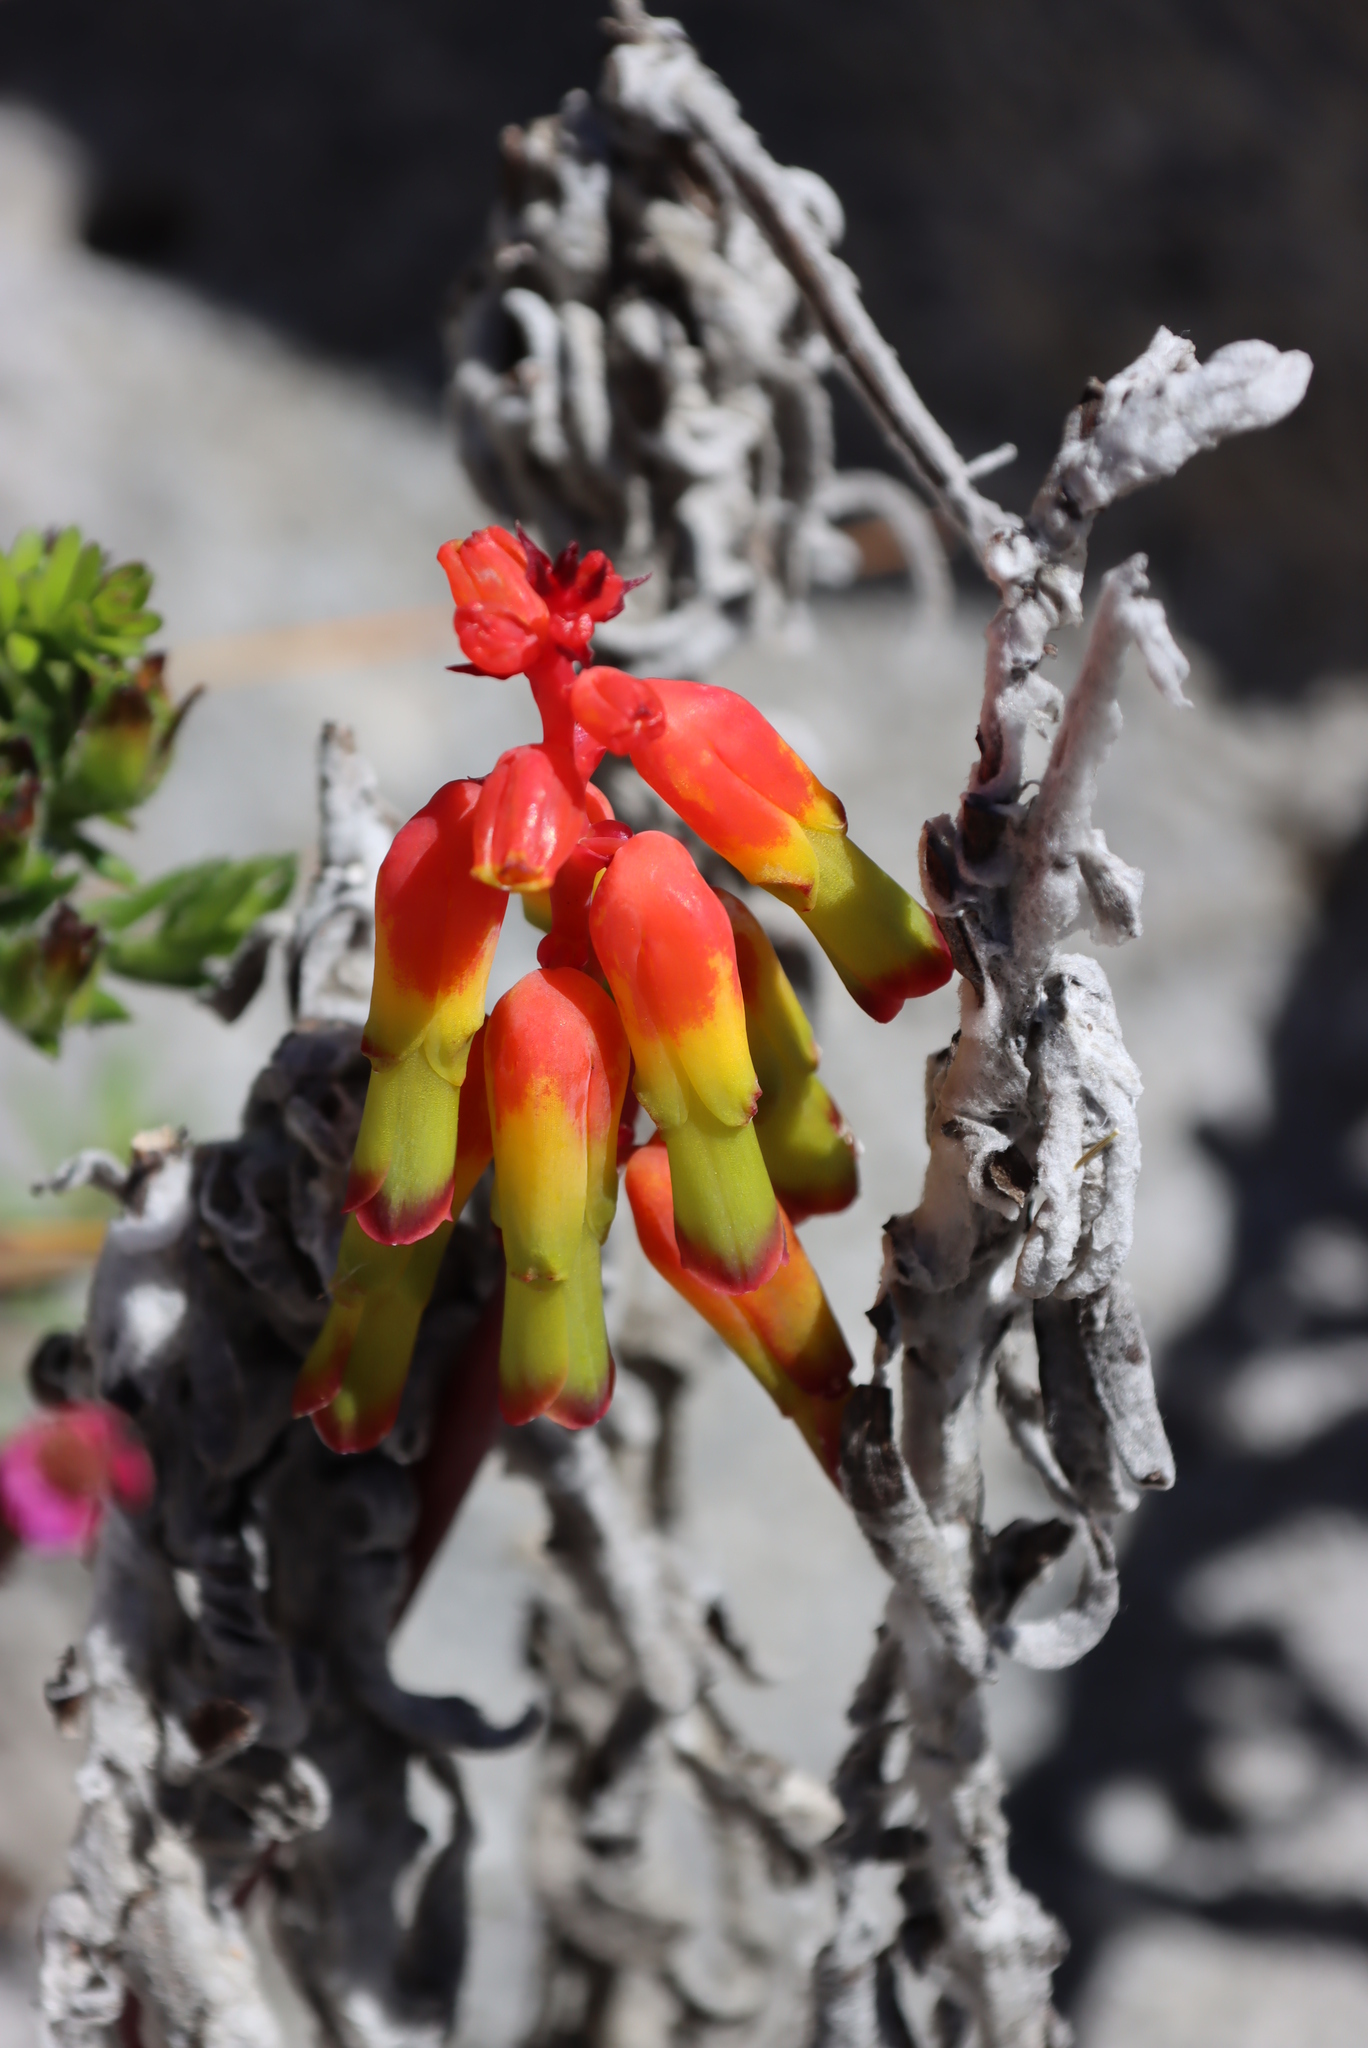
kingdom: Plantae
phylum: Tracheophyta
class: Liliopsida
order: Asparagales
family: Asparagaceae
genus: Lachenalia
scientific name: Lachenalia luteola
